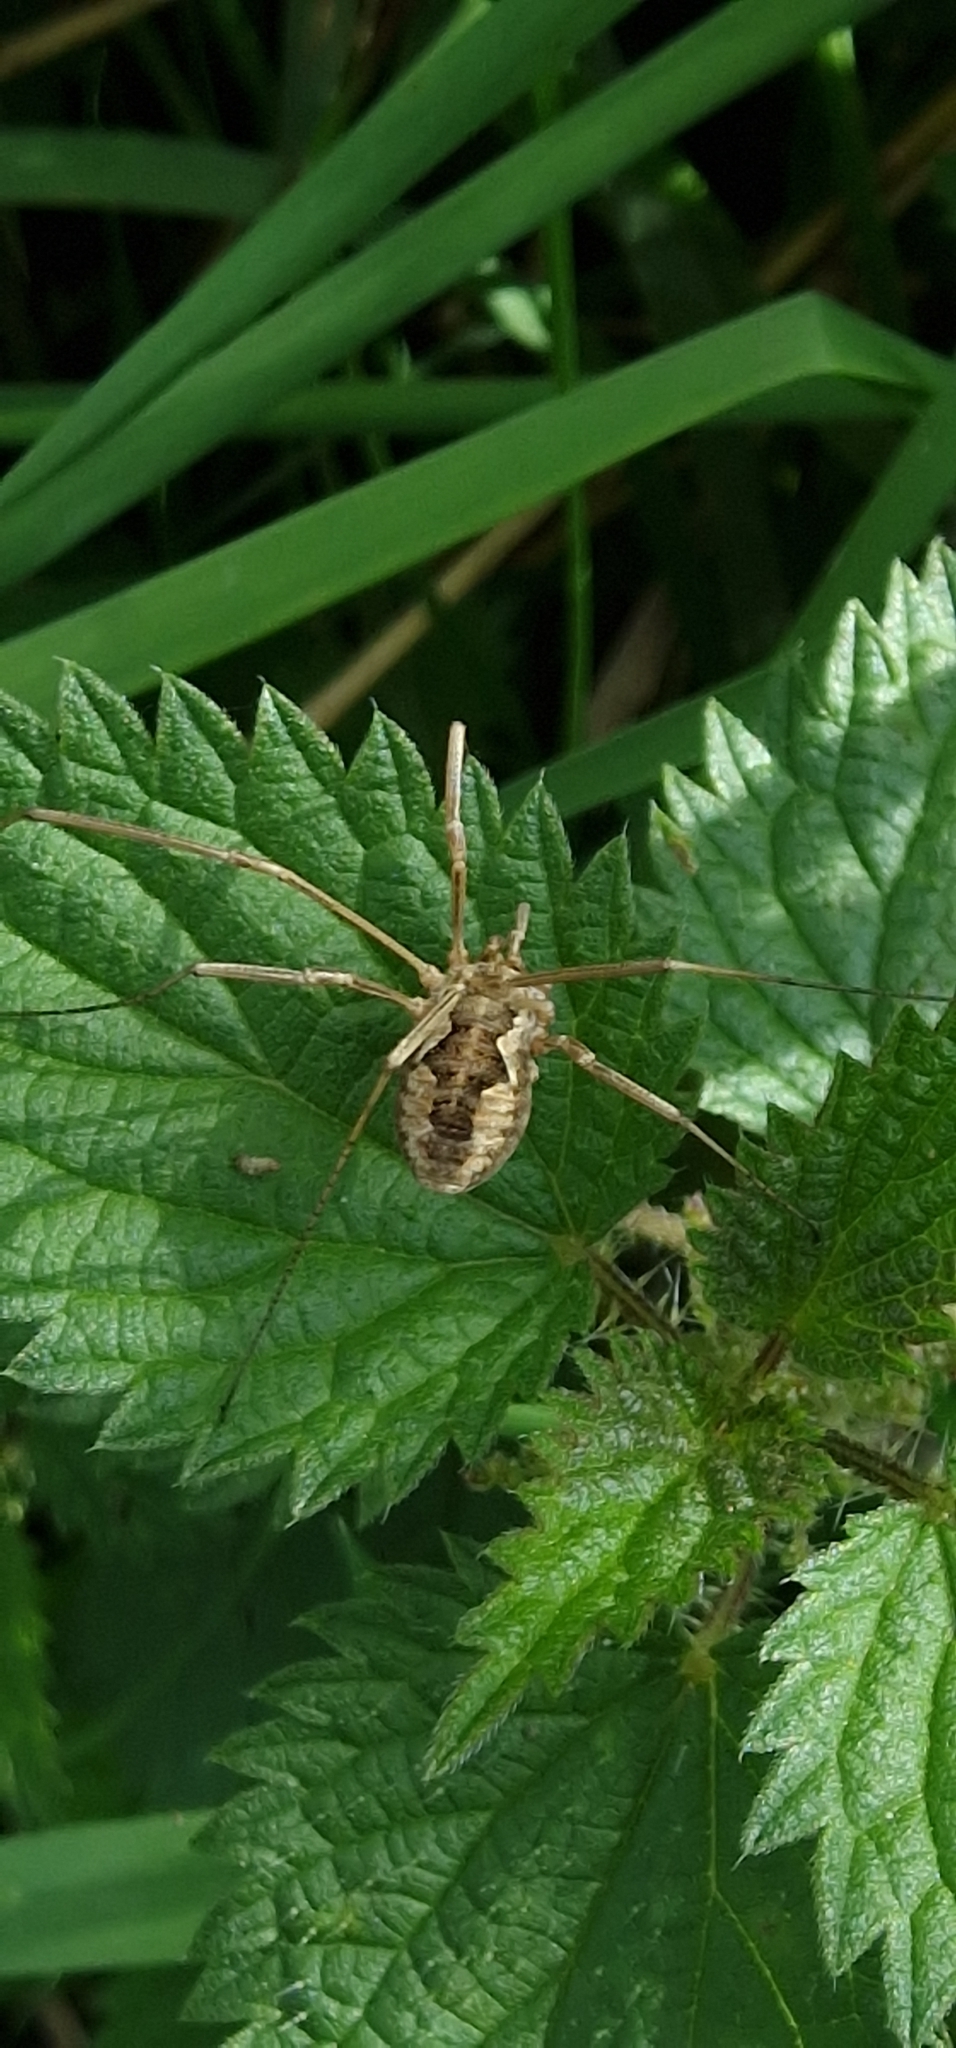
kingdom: Animalia
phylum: Arthropoda
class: Arachnida
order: Opiliones
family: Phalangiidae
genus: Phalangium
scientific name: Phalangium opilio
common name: Daddy longleg
